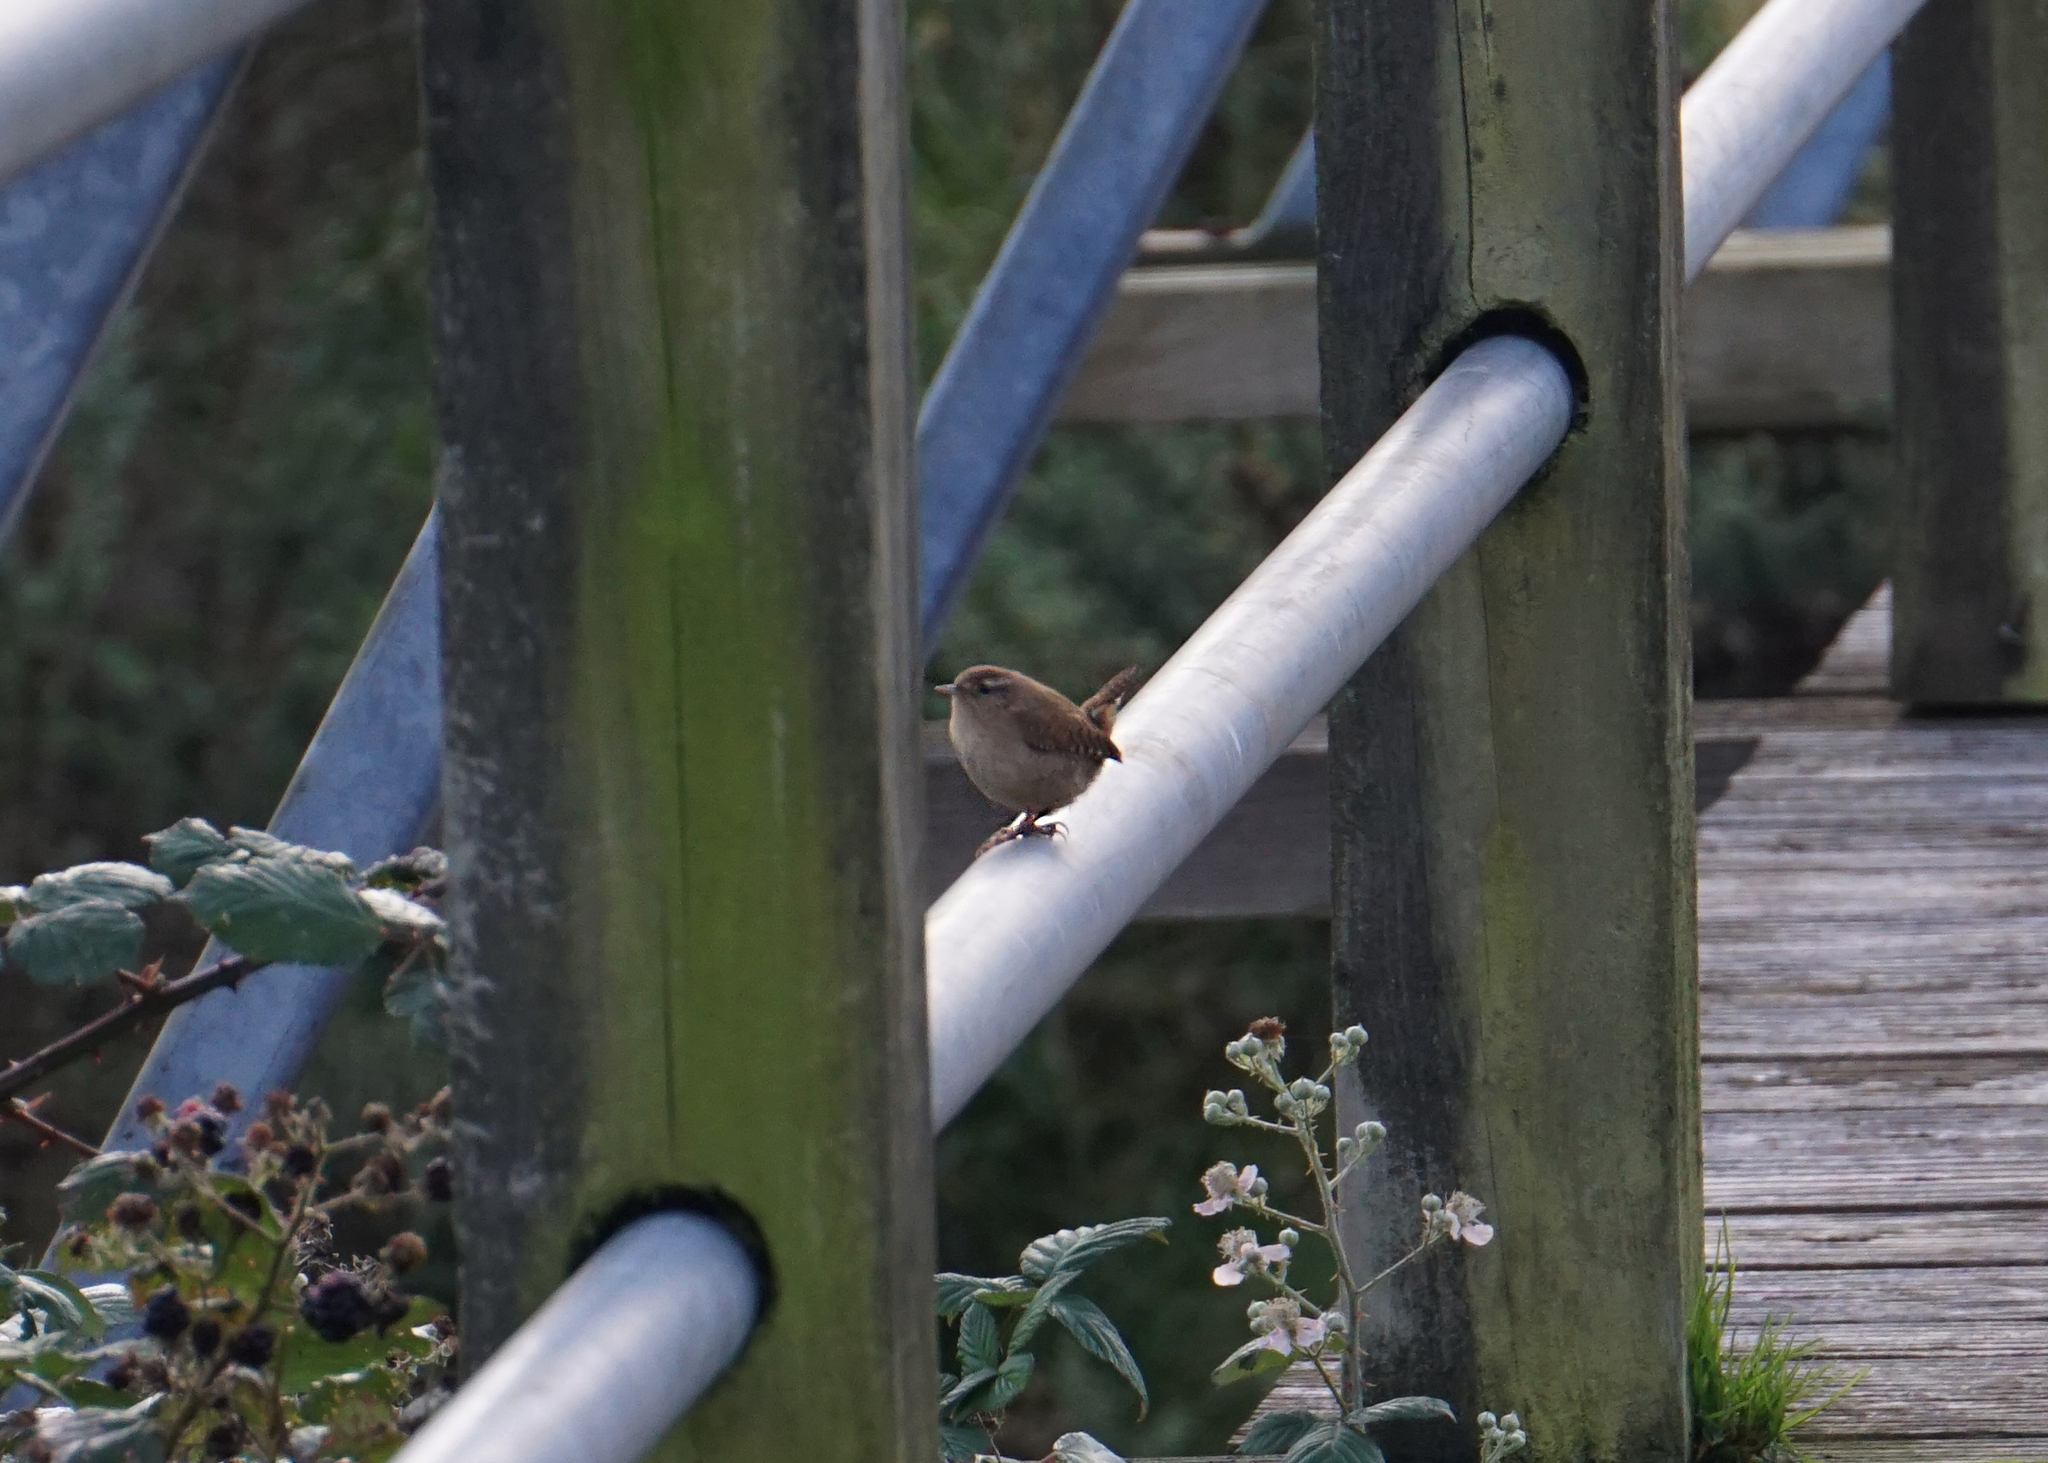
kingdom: Animalia
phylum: Chordata
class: Aves
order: Passeriformes
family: Troglodytidae
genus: Troglodytes
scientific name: Troglodytes troglodytes
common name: Eurasian wren
